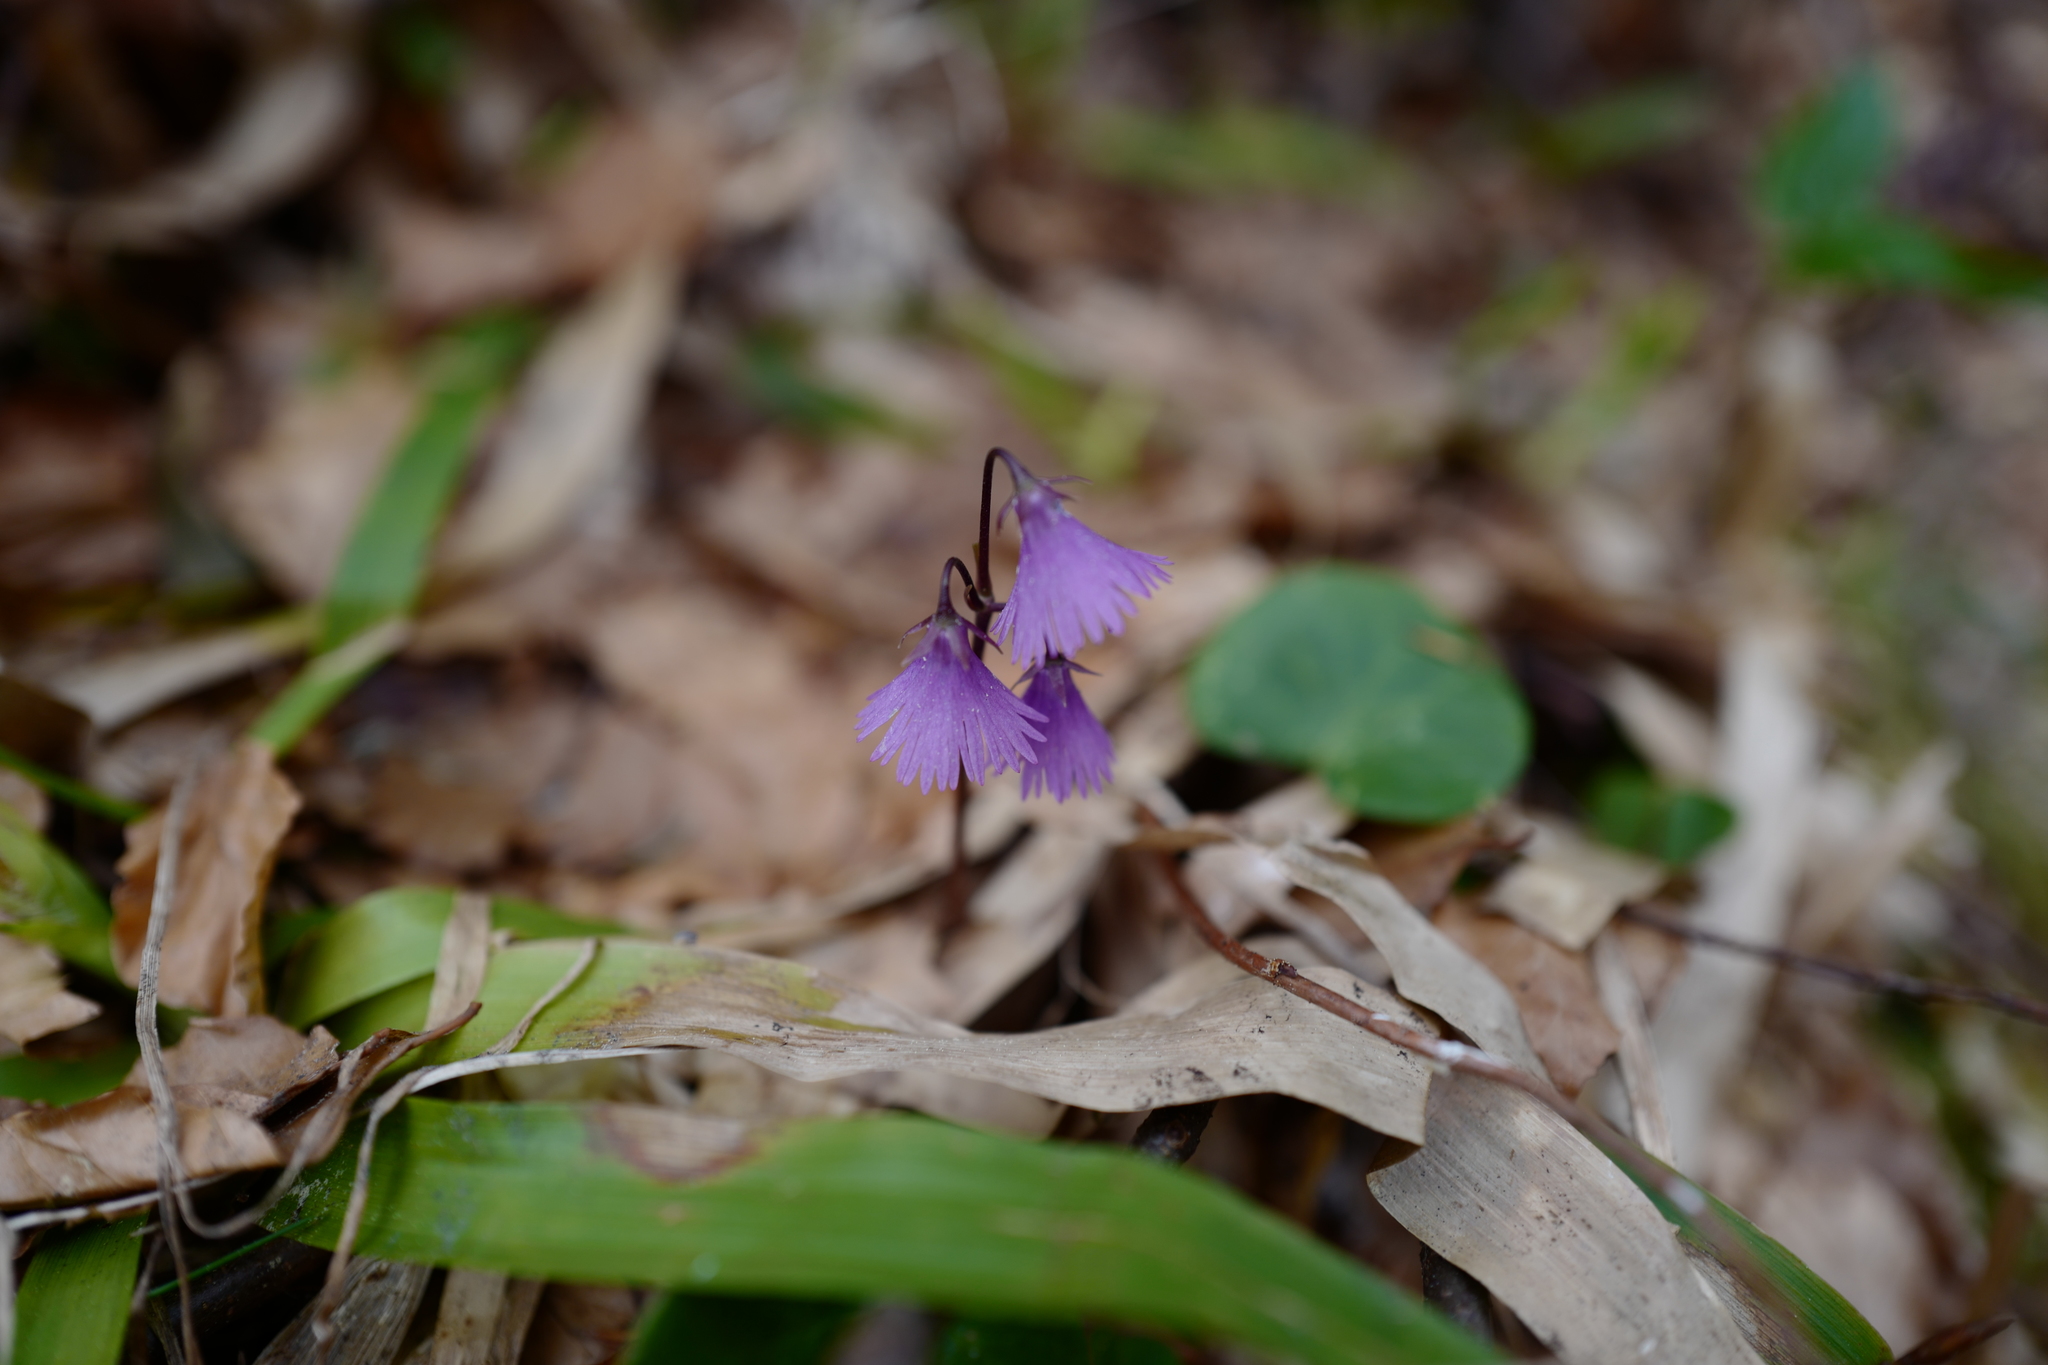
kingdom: Plantae
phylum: Tracheophyta
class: Magnoliopsida
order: Ericales
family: Primulaceae
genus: Soldanella
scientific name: Soldanella alpina
